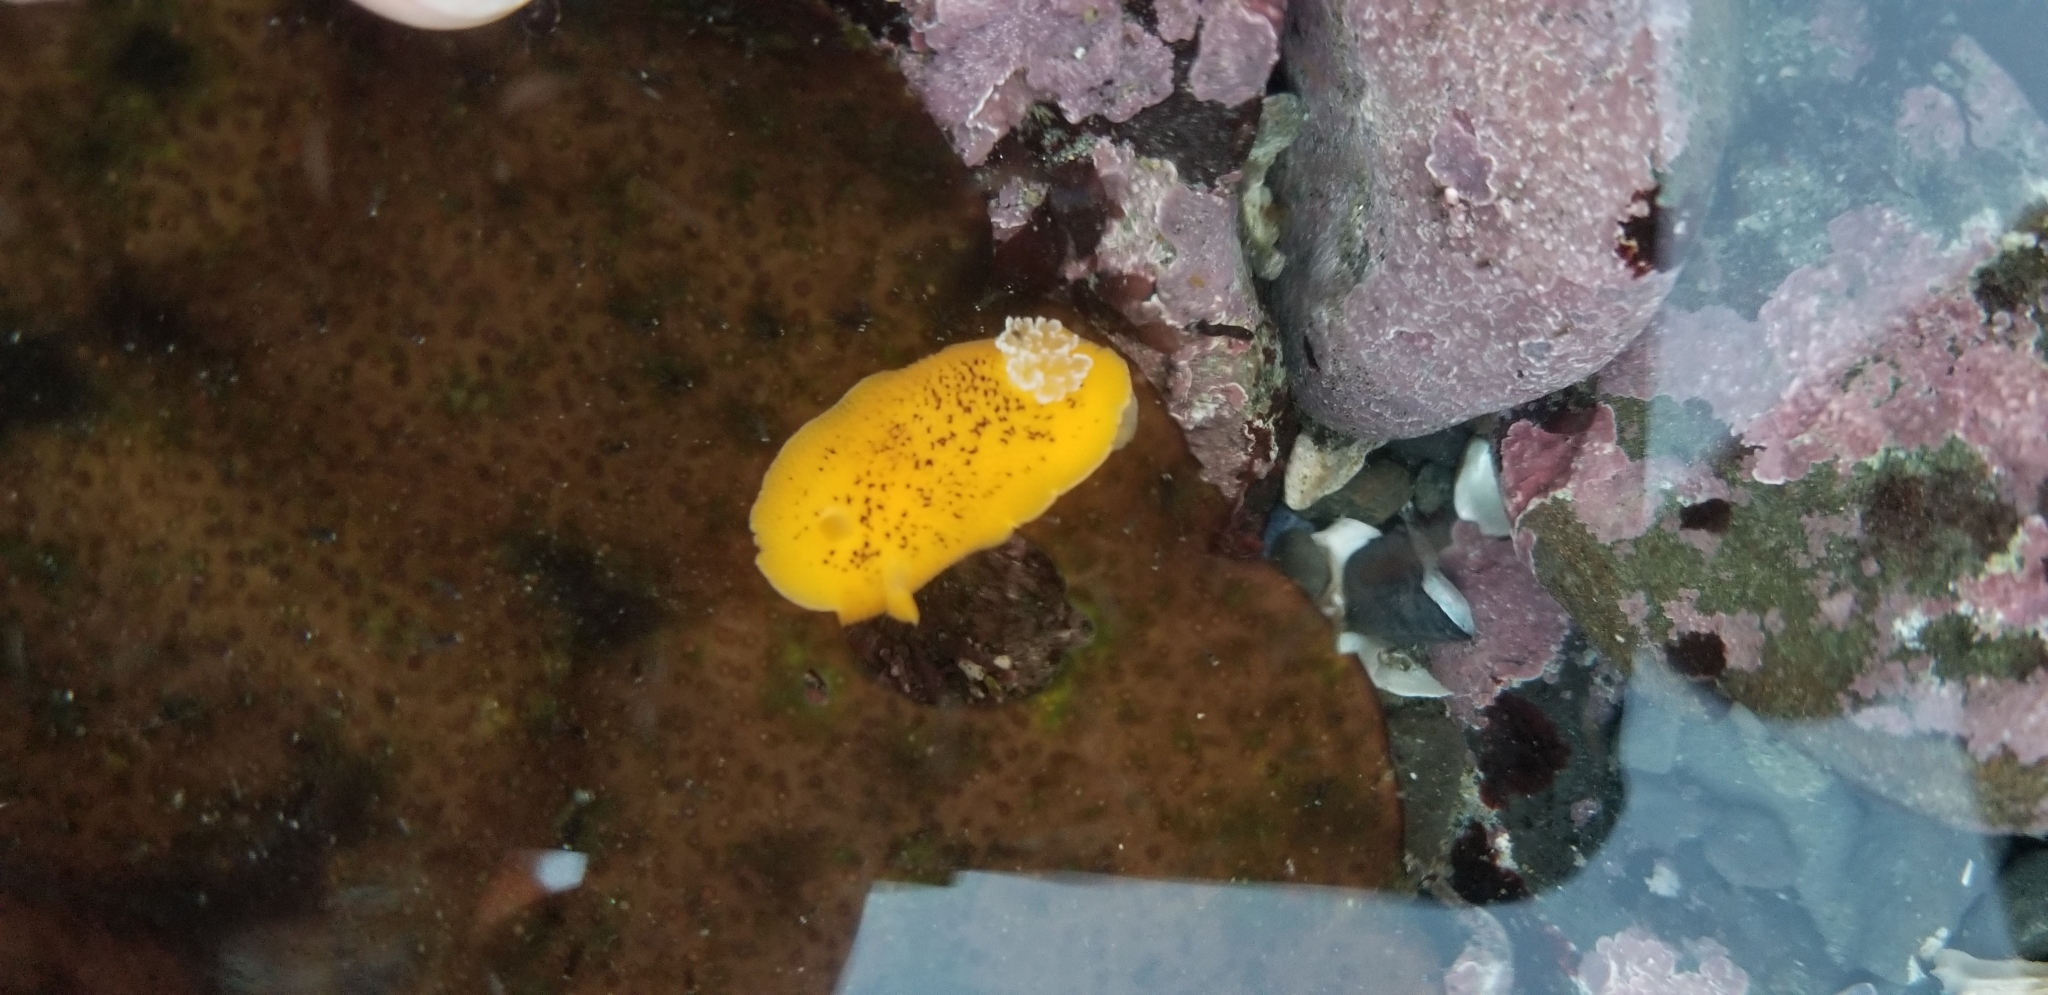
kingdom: Animalia
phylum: Mollusca
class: Gastropoda
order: Nudibranchia
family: Discodorididae
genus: Peltodoris
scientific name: Peltodoris nobilis
